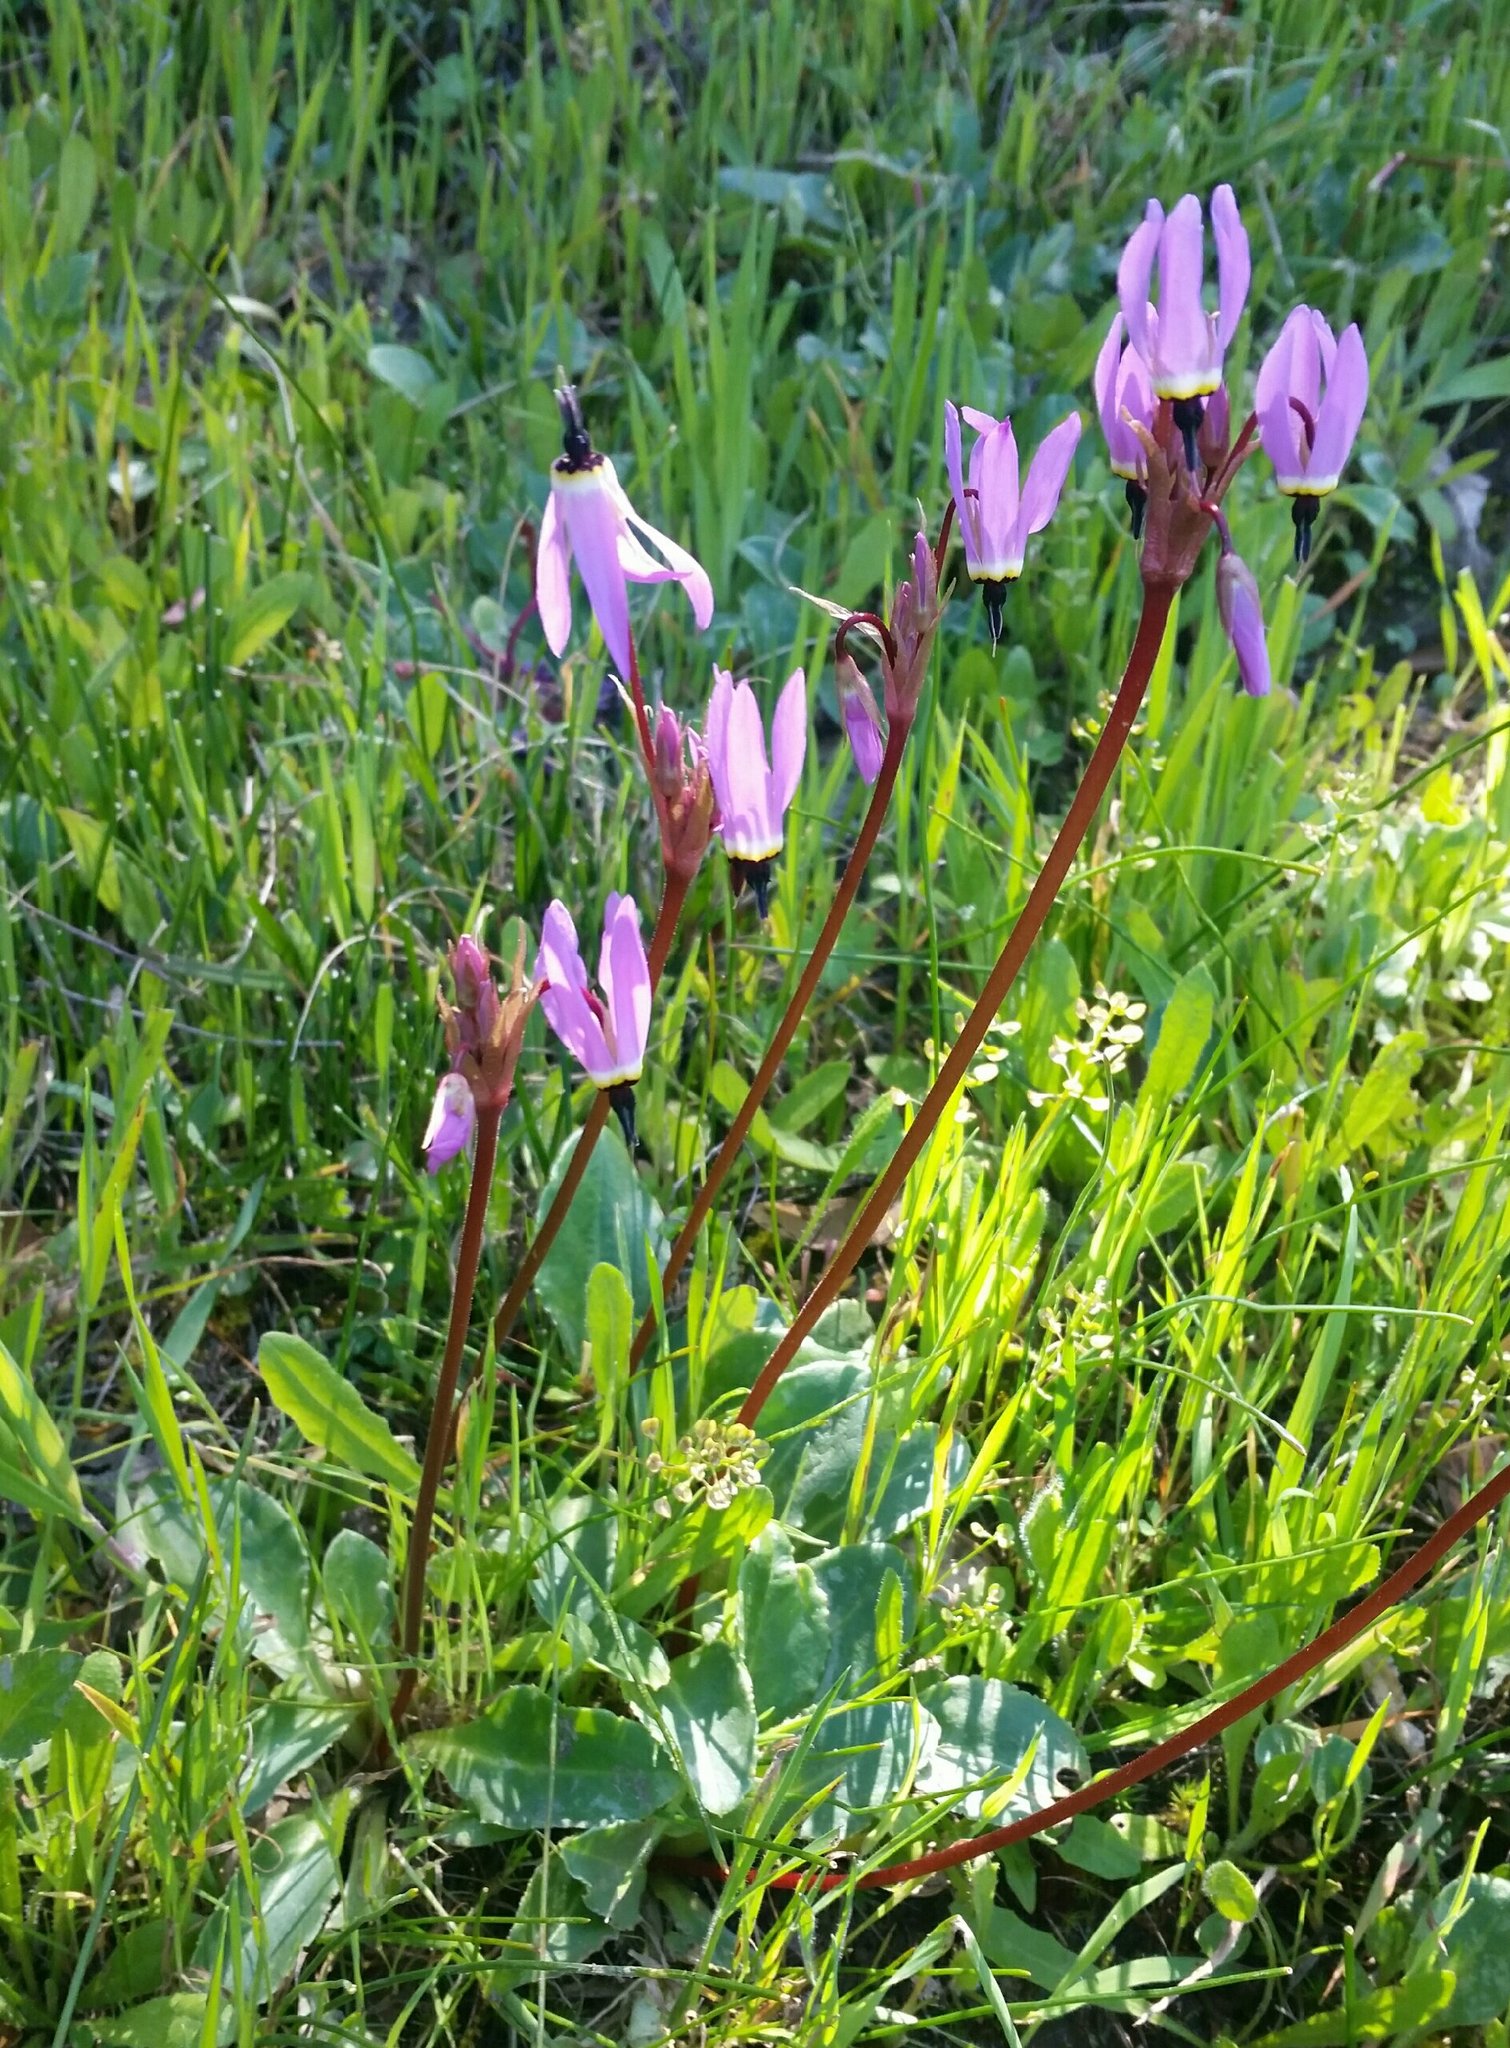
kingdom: Plantae
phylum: Tracheophyta
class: Magnoliopsida
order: Ericales
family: Primulaceae
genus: Dodecatheon
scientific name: Dodecatheon hendersonii
